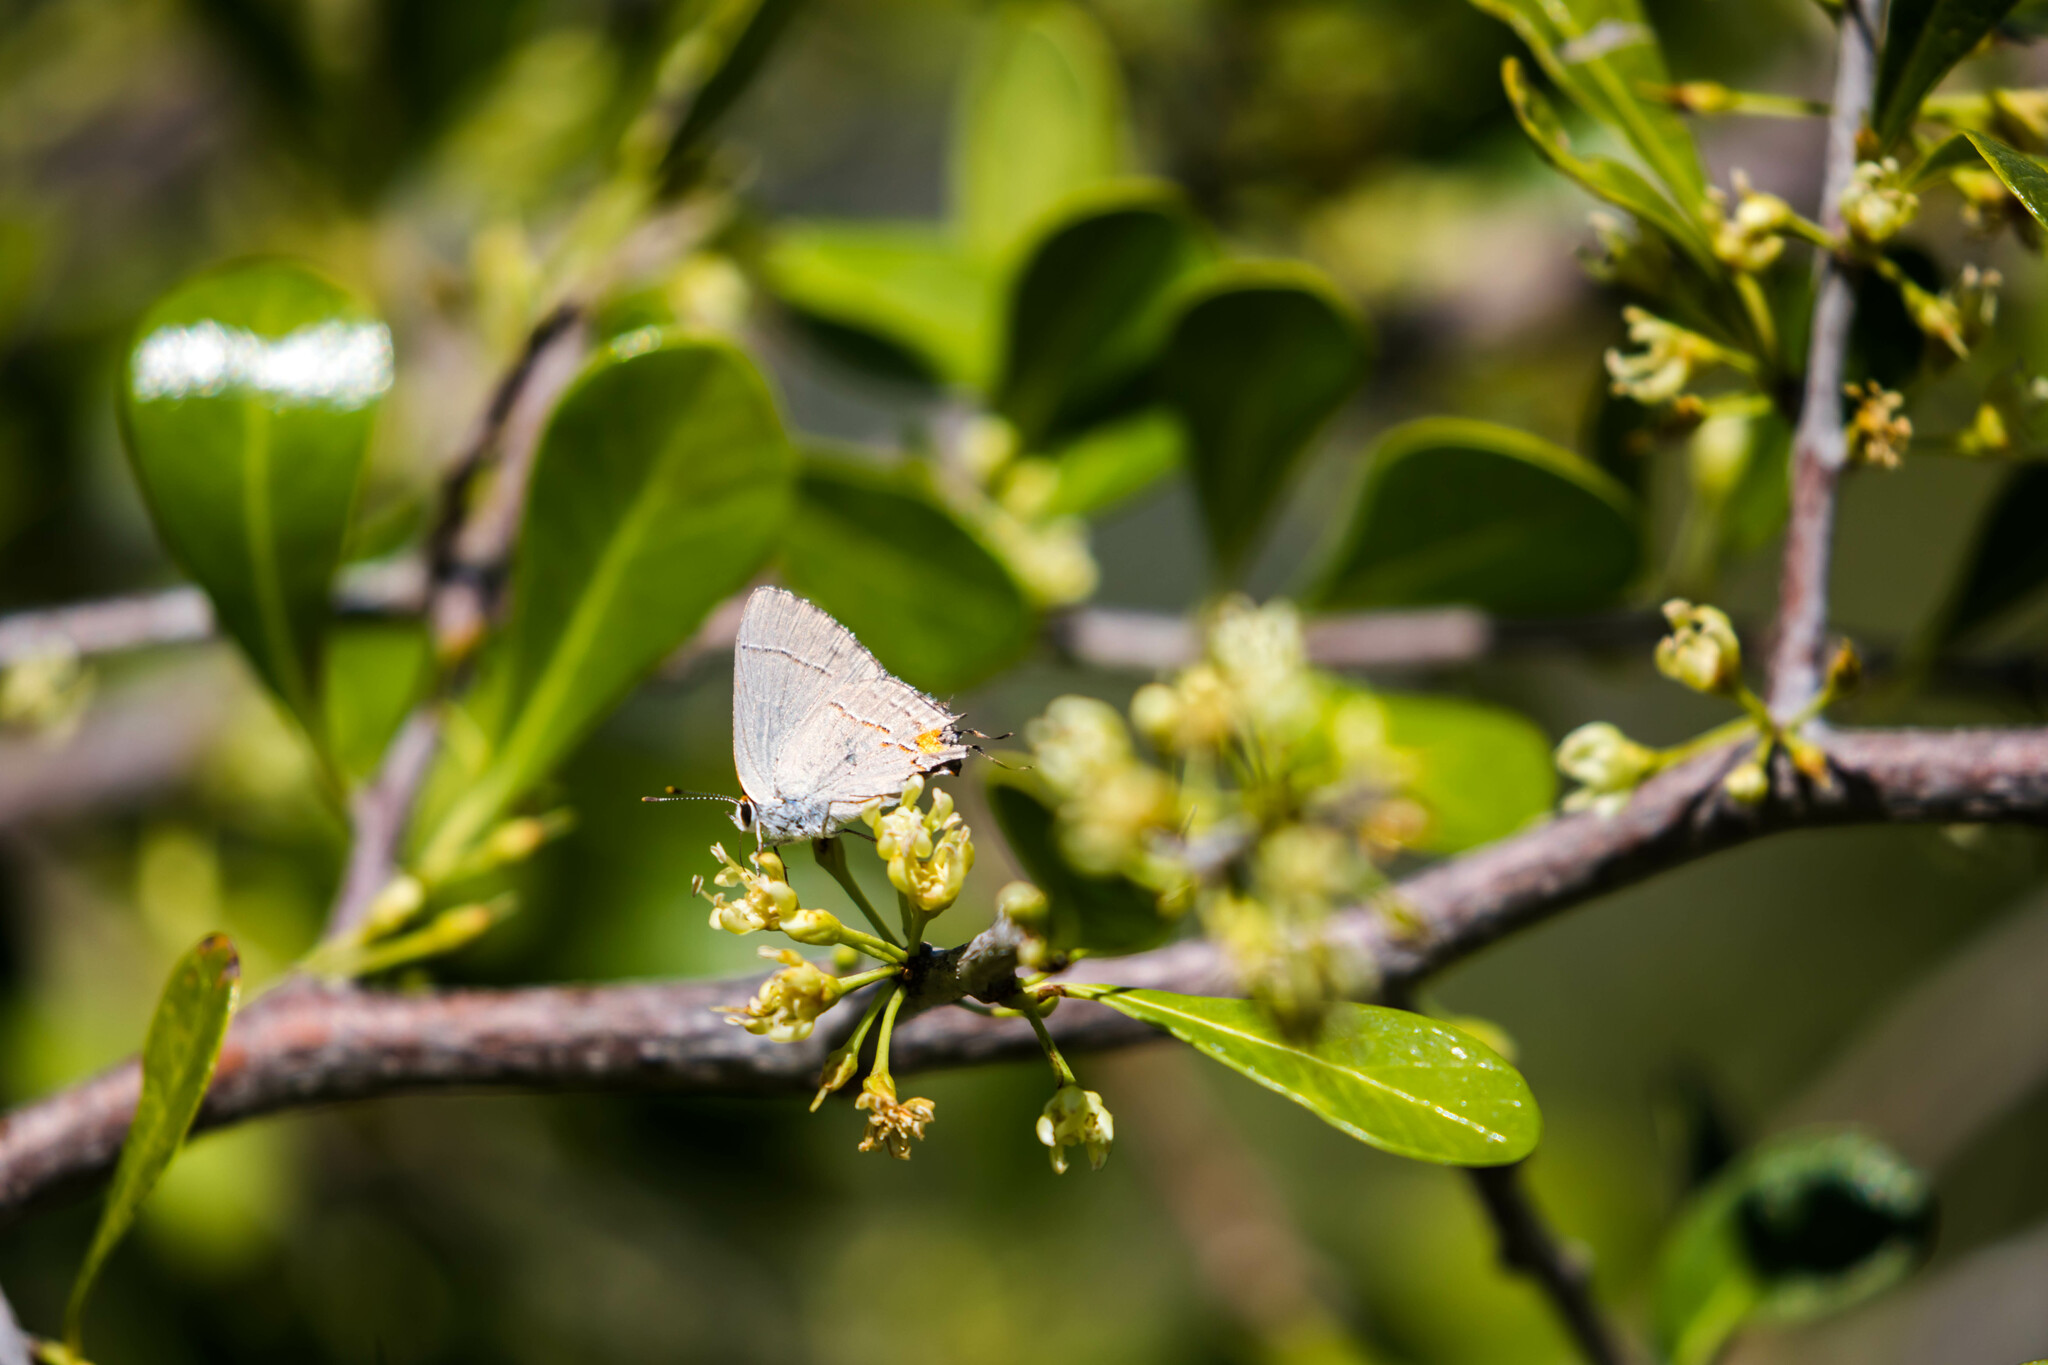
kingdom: Animalia
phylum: Arthropoda
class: Insecta
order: Lepidoptera
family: Lycaenidae
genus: Strymon
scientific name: Strymon melinus
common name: Gray hairstreak
